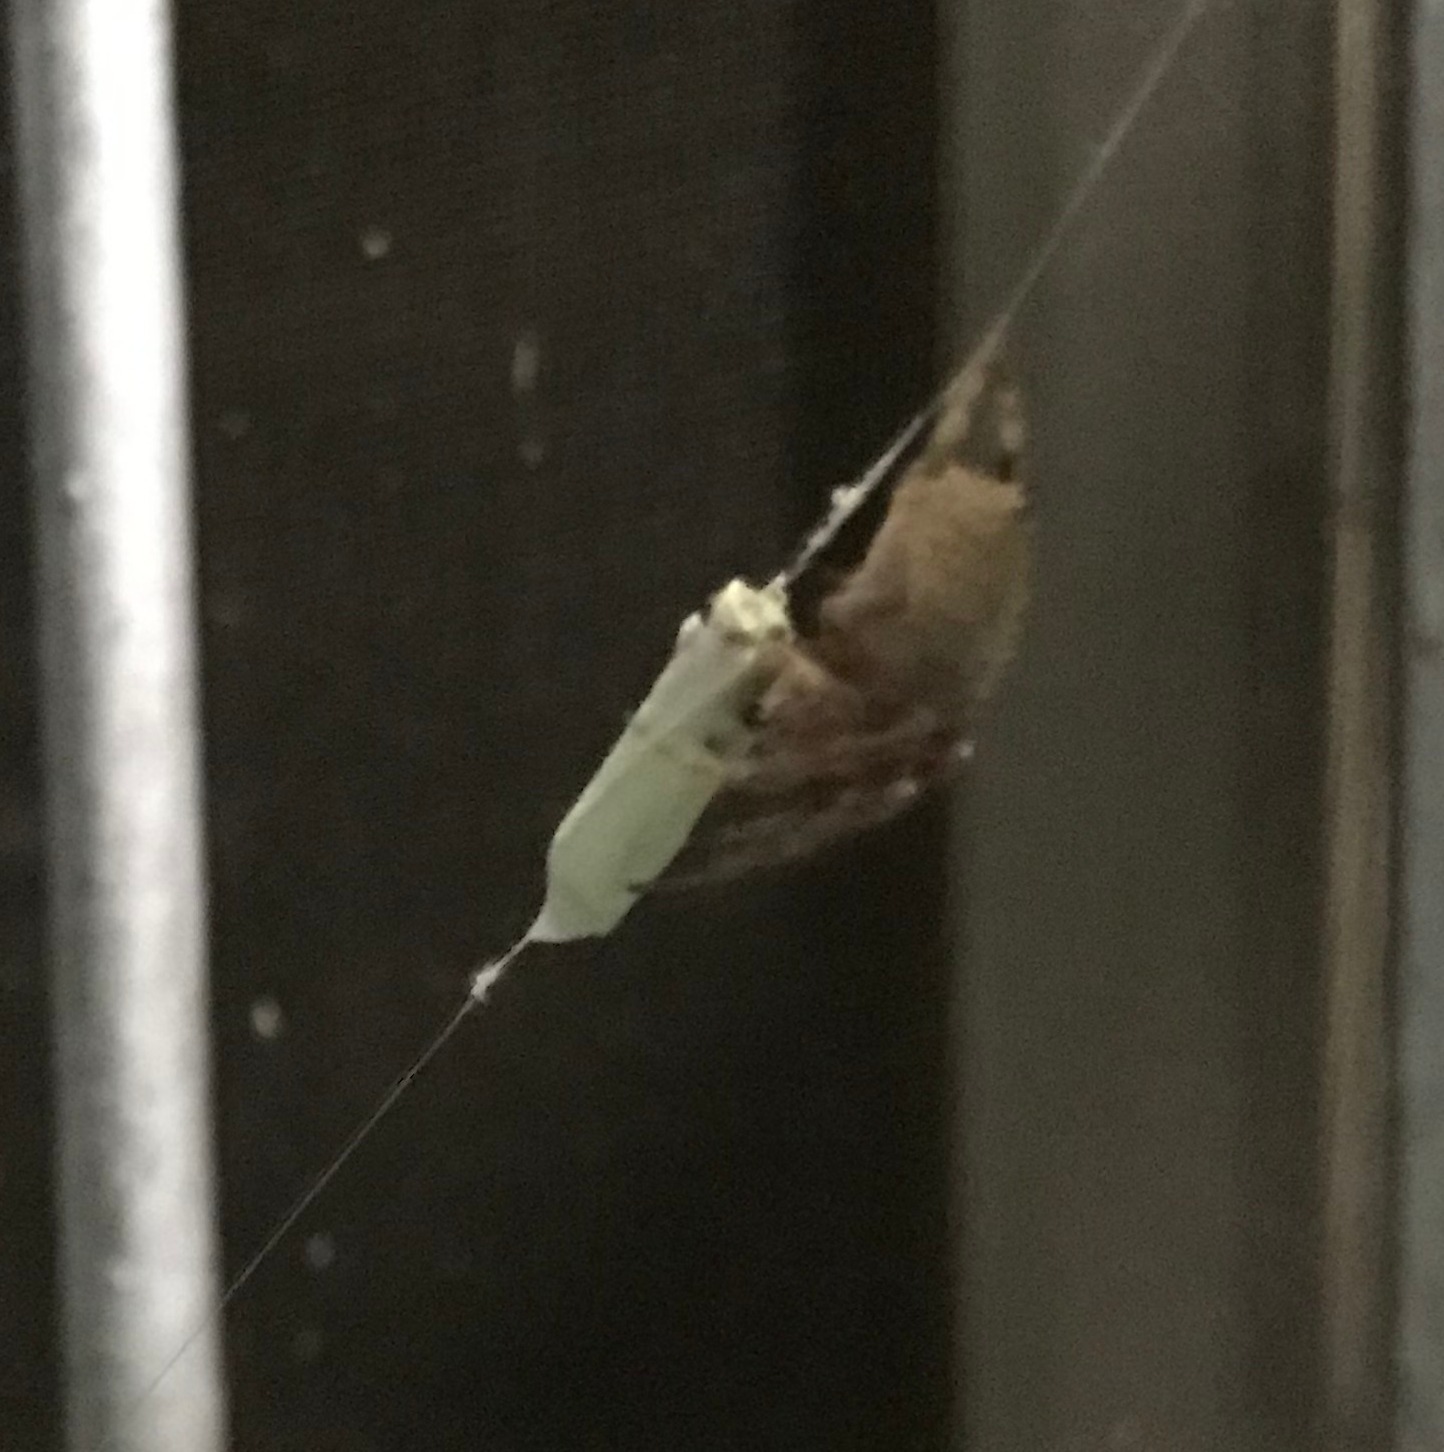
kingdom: Animalia
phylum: Arthropoda
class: Arachnida
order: Araneae
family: Araneidae
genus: Eriophora
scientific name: Eriophora edax
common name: Orb weavers
